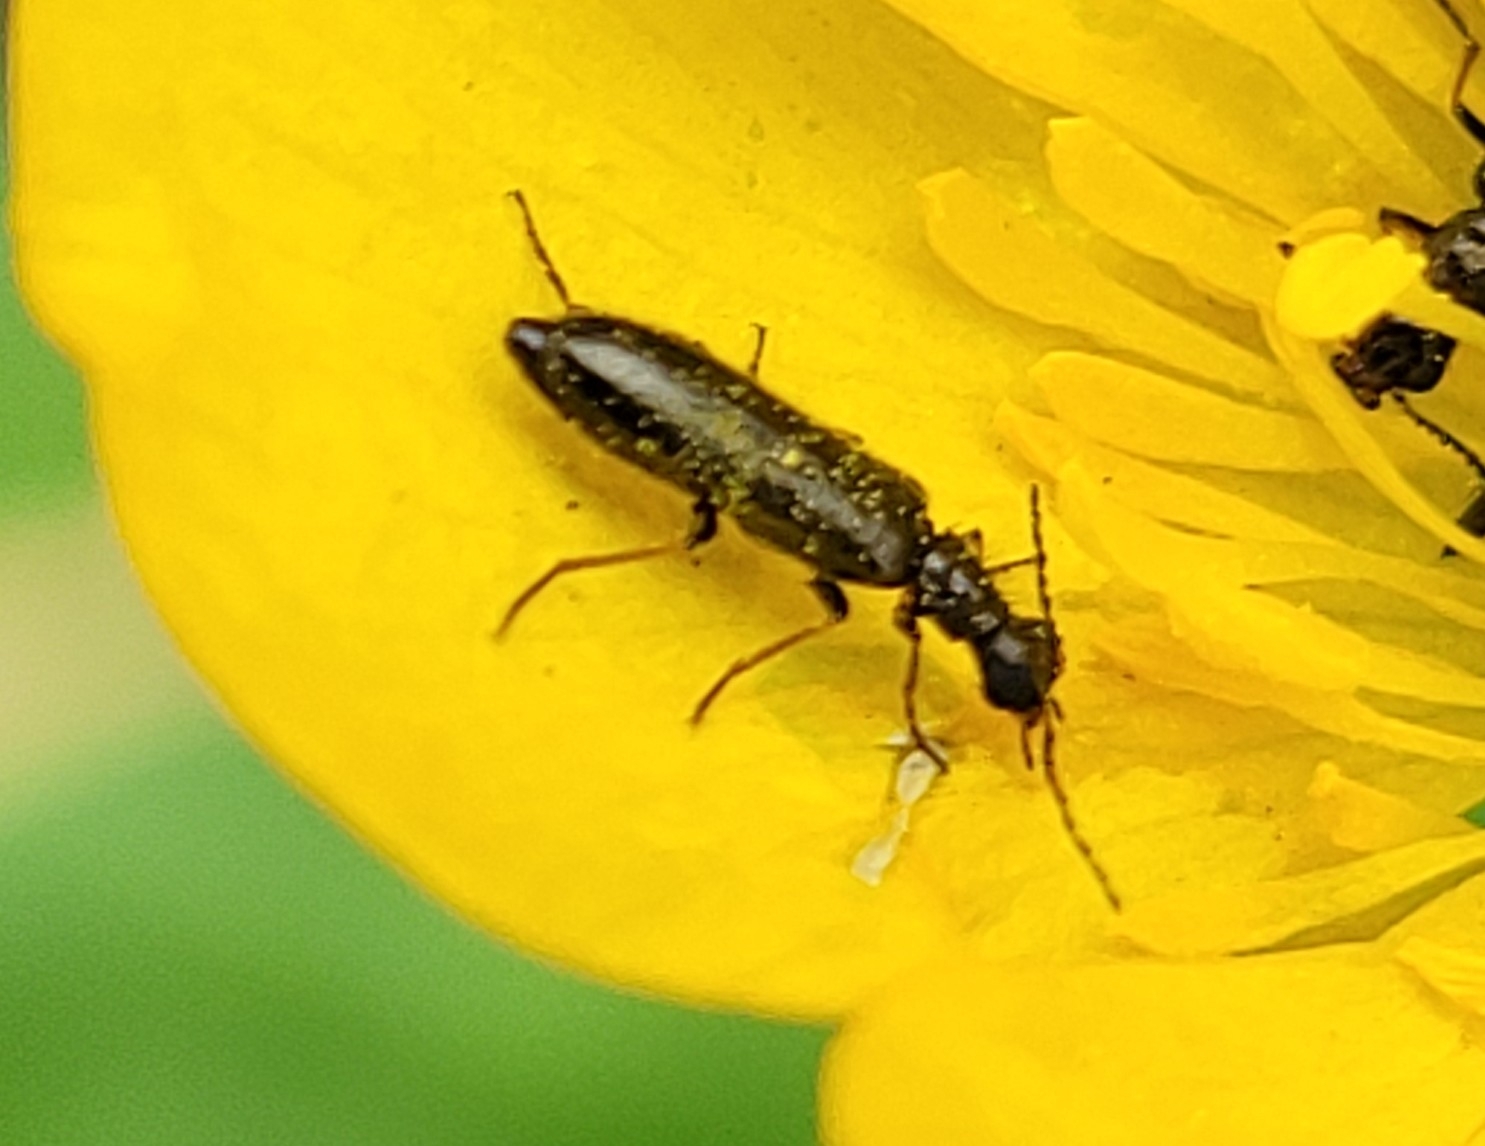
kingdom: Animalia
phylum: Arthropoda
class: Insecta
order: Coleoptera
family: Melyridae
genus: Dasytes
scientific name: Dasytes plumbeus
